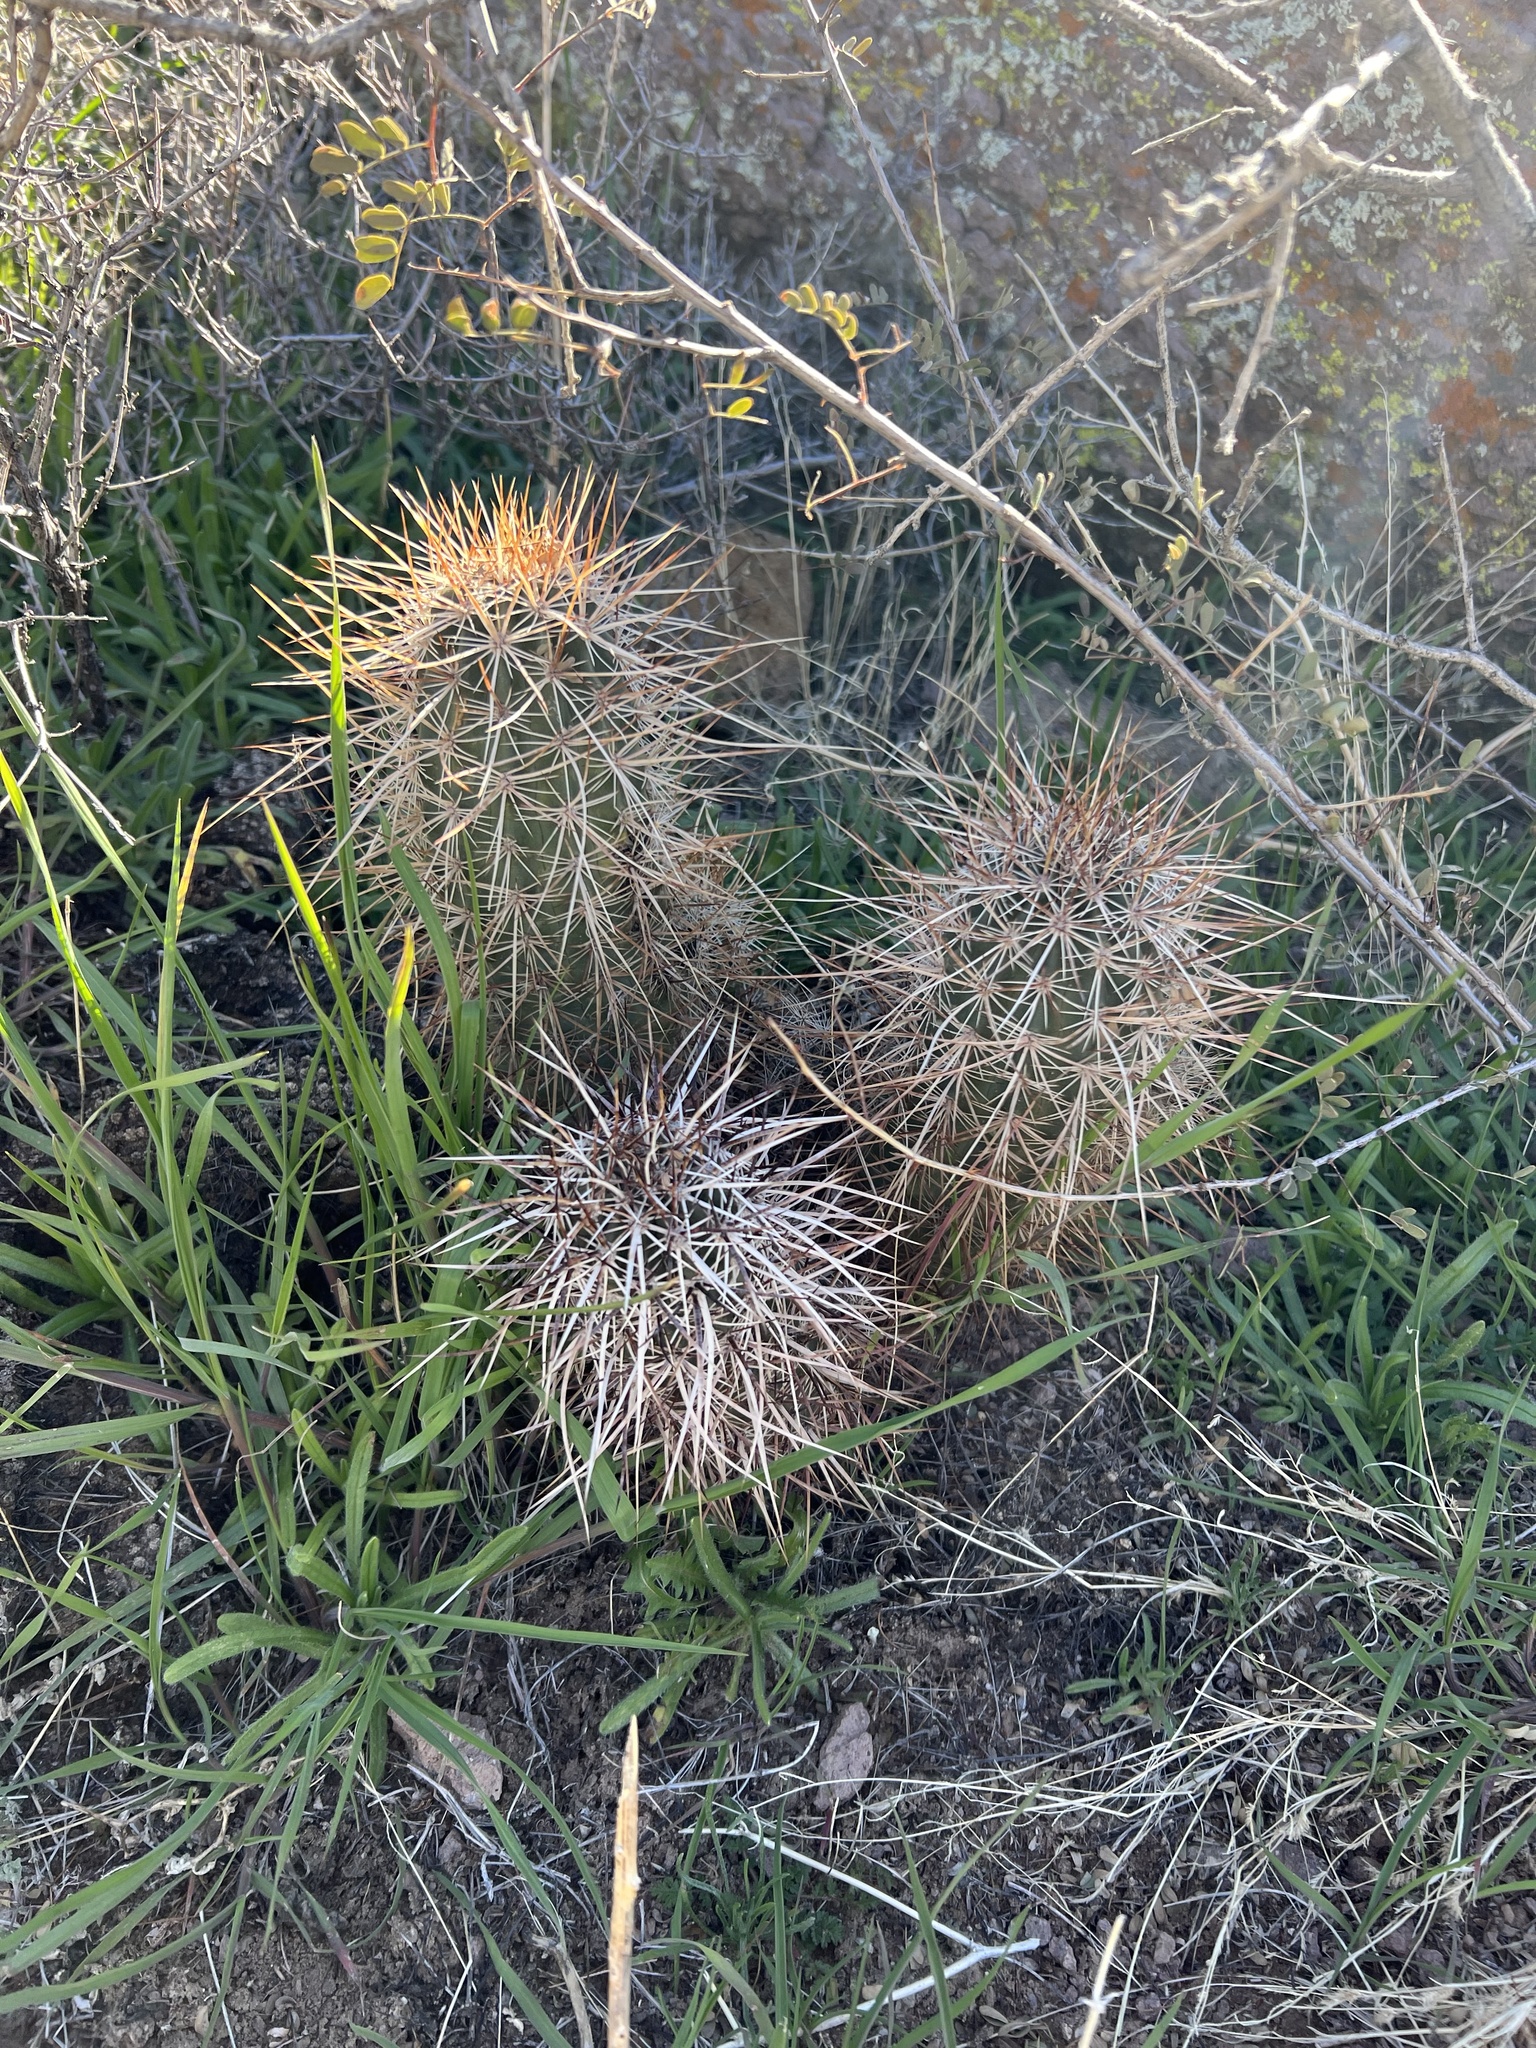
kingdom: Plantae
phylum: Tracheophyta
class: Magnoliopsida
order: Caryophyllales
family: Cactaceae
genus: Echinocereus
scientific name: Echinocereus engelmannii
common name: Engelmann's hedgehog cactus
